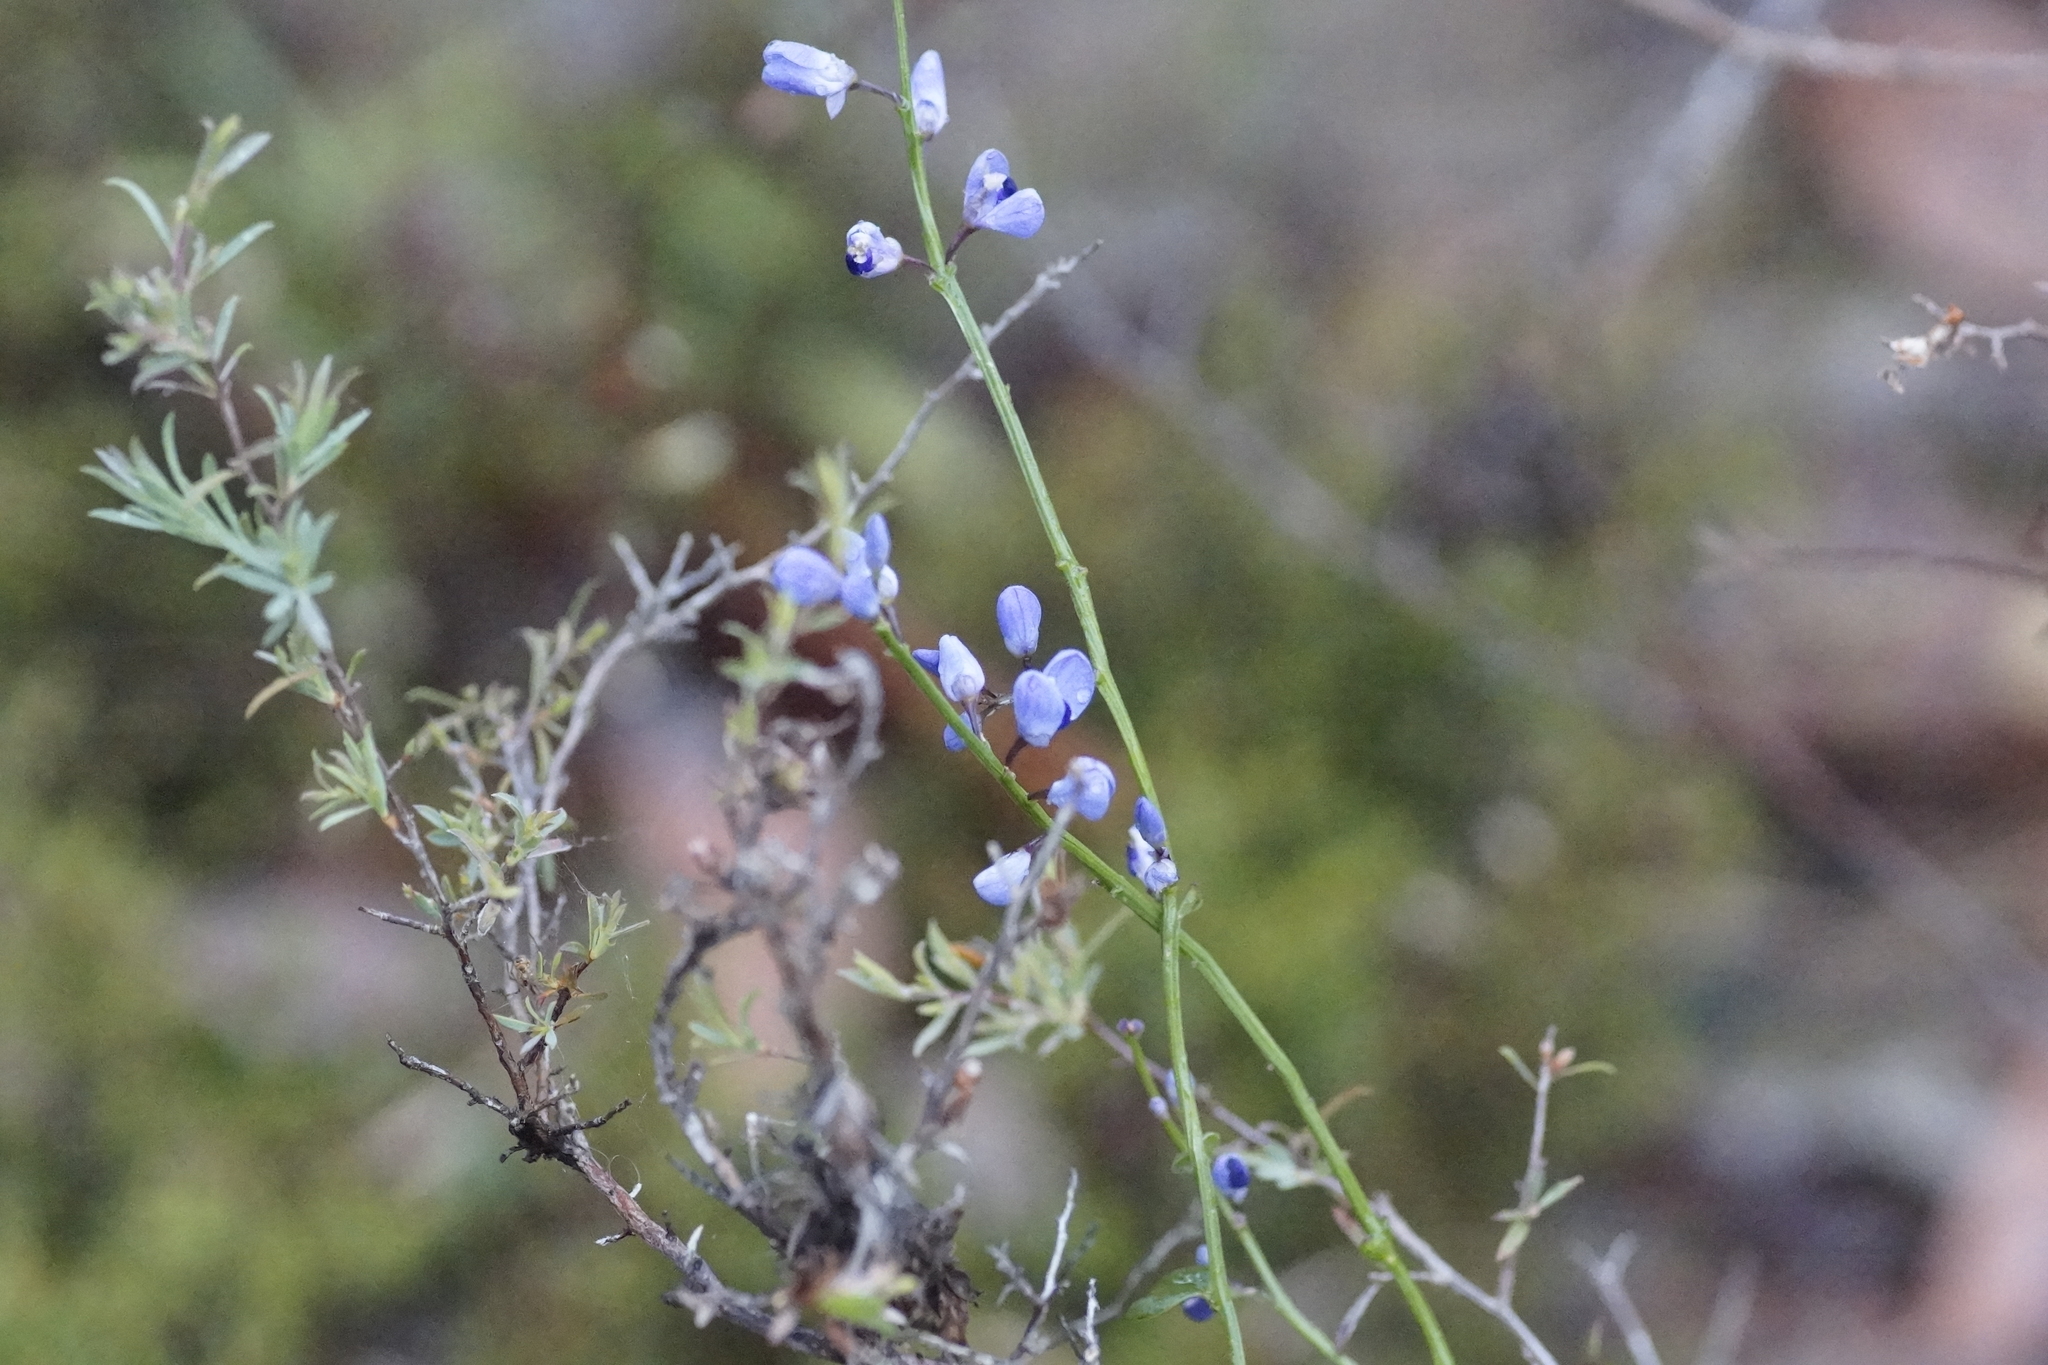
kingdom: Plantae
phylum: Tracheophyta
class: Magnoliopsida
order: Fabales
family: Polygalaceae
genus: Comesperma
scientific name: Comesperma volubile
